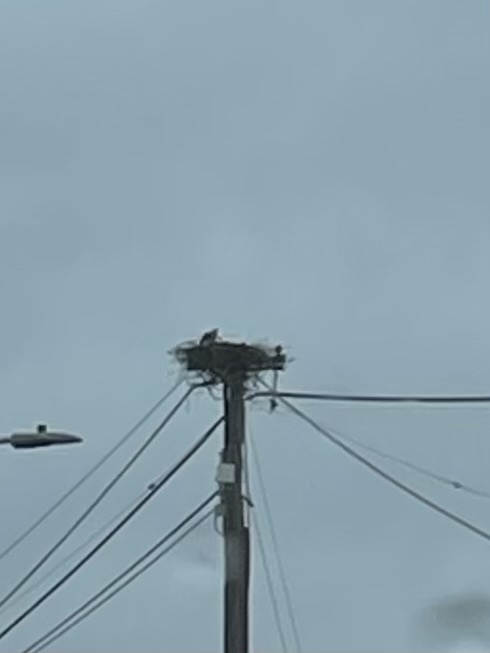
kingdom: Animalia
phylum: Chordata
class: Aves
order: Accipitriformes
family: Pandionidae
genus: Pandion
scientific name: Pandion haliaetus
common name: Osprey
